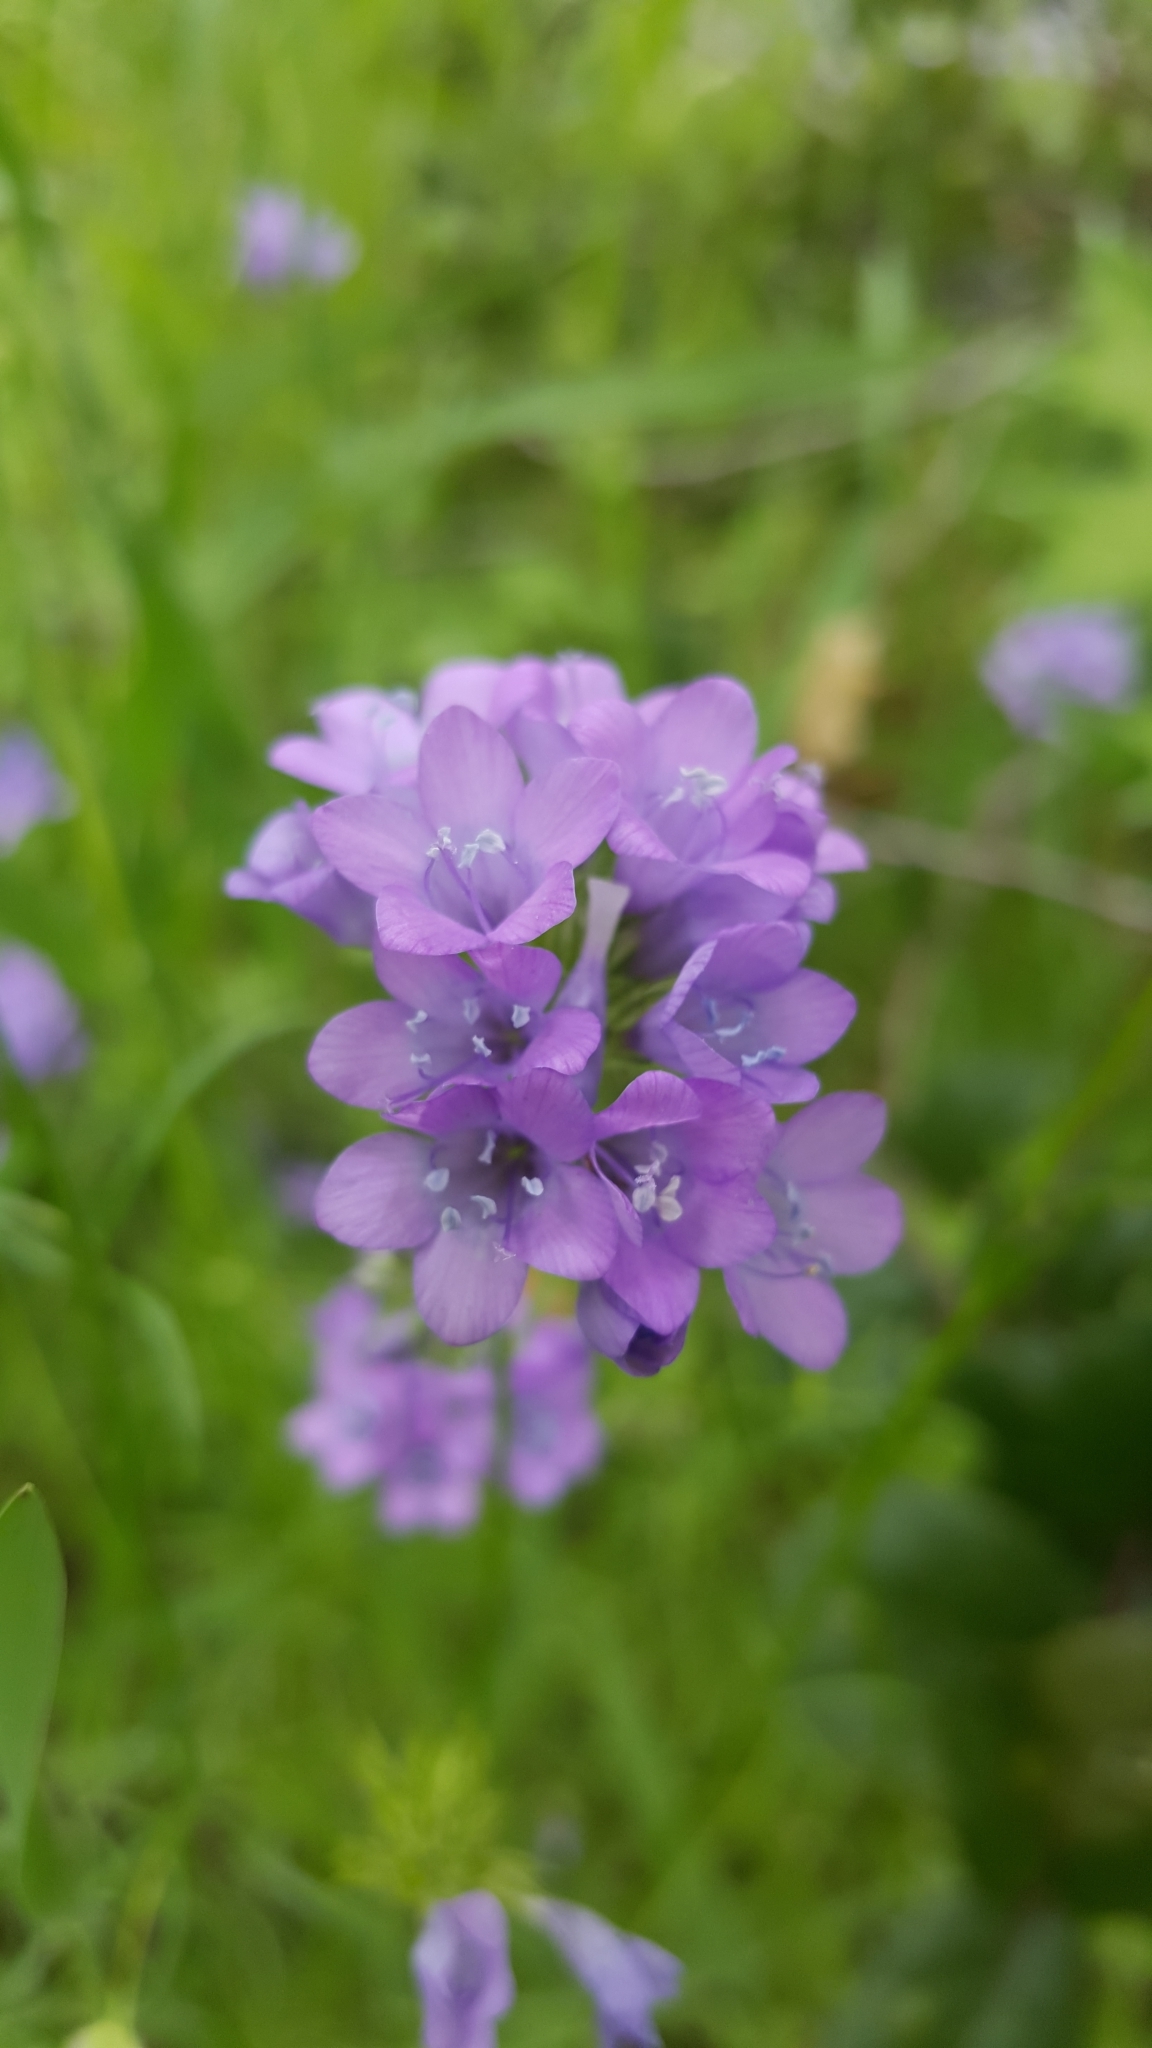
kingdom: Plantae
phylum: Tracheophyta
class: Magnoliopsida
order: Ericales
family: Polemoniaceae
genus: Gilia
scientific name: Gilia achilleifolia
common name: California gily-flower
